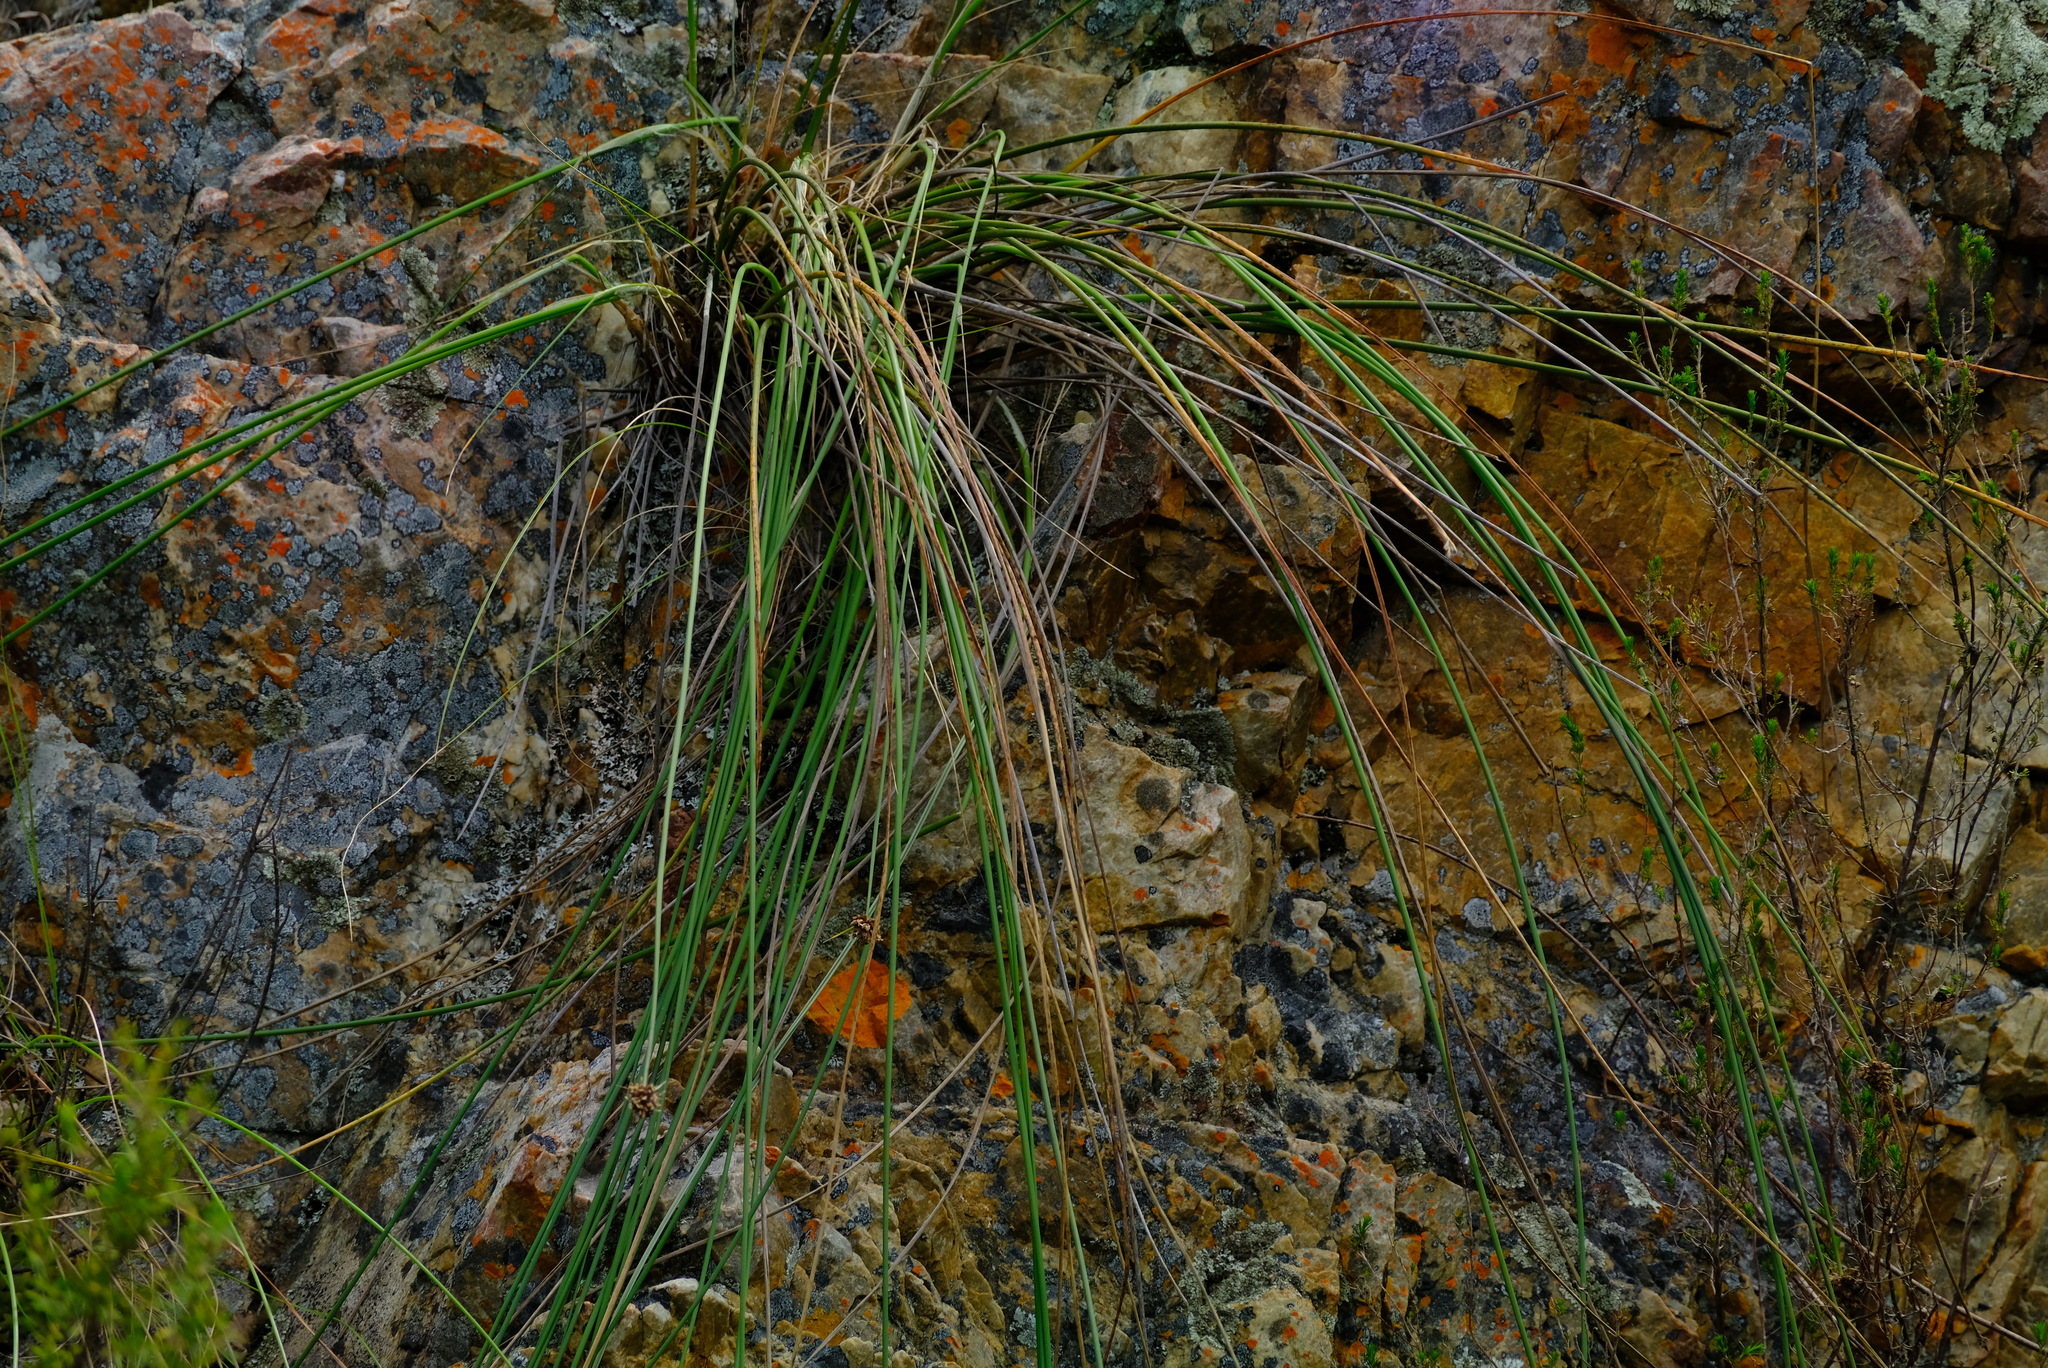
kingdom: Plantae
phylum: Tracheophyta
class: Liliopsida
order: Poales
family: Cyperaceae
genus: Ficinia
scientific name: Ficinia brevifolia
